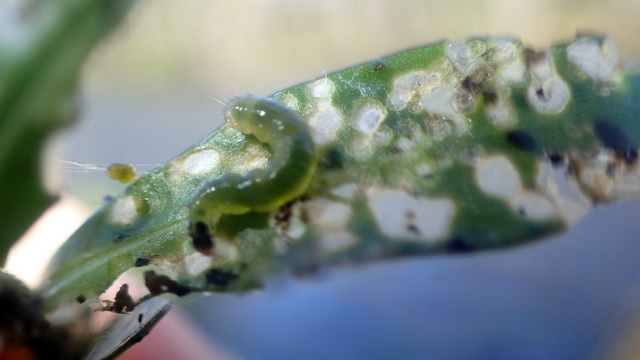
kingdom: Animalia
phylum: Arthropoda
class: Insecta
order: Lepidoptera
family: Crambidae
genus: Herpetogramma
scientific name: Herpetogramma bipunctalis
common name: Southern beet webworm
